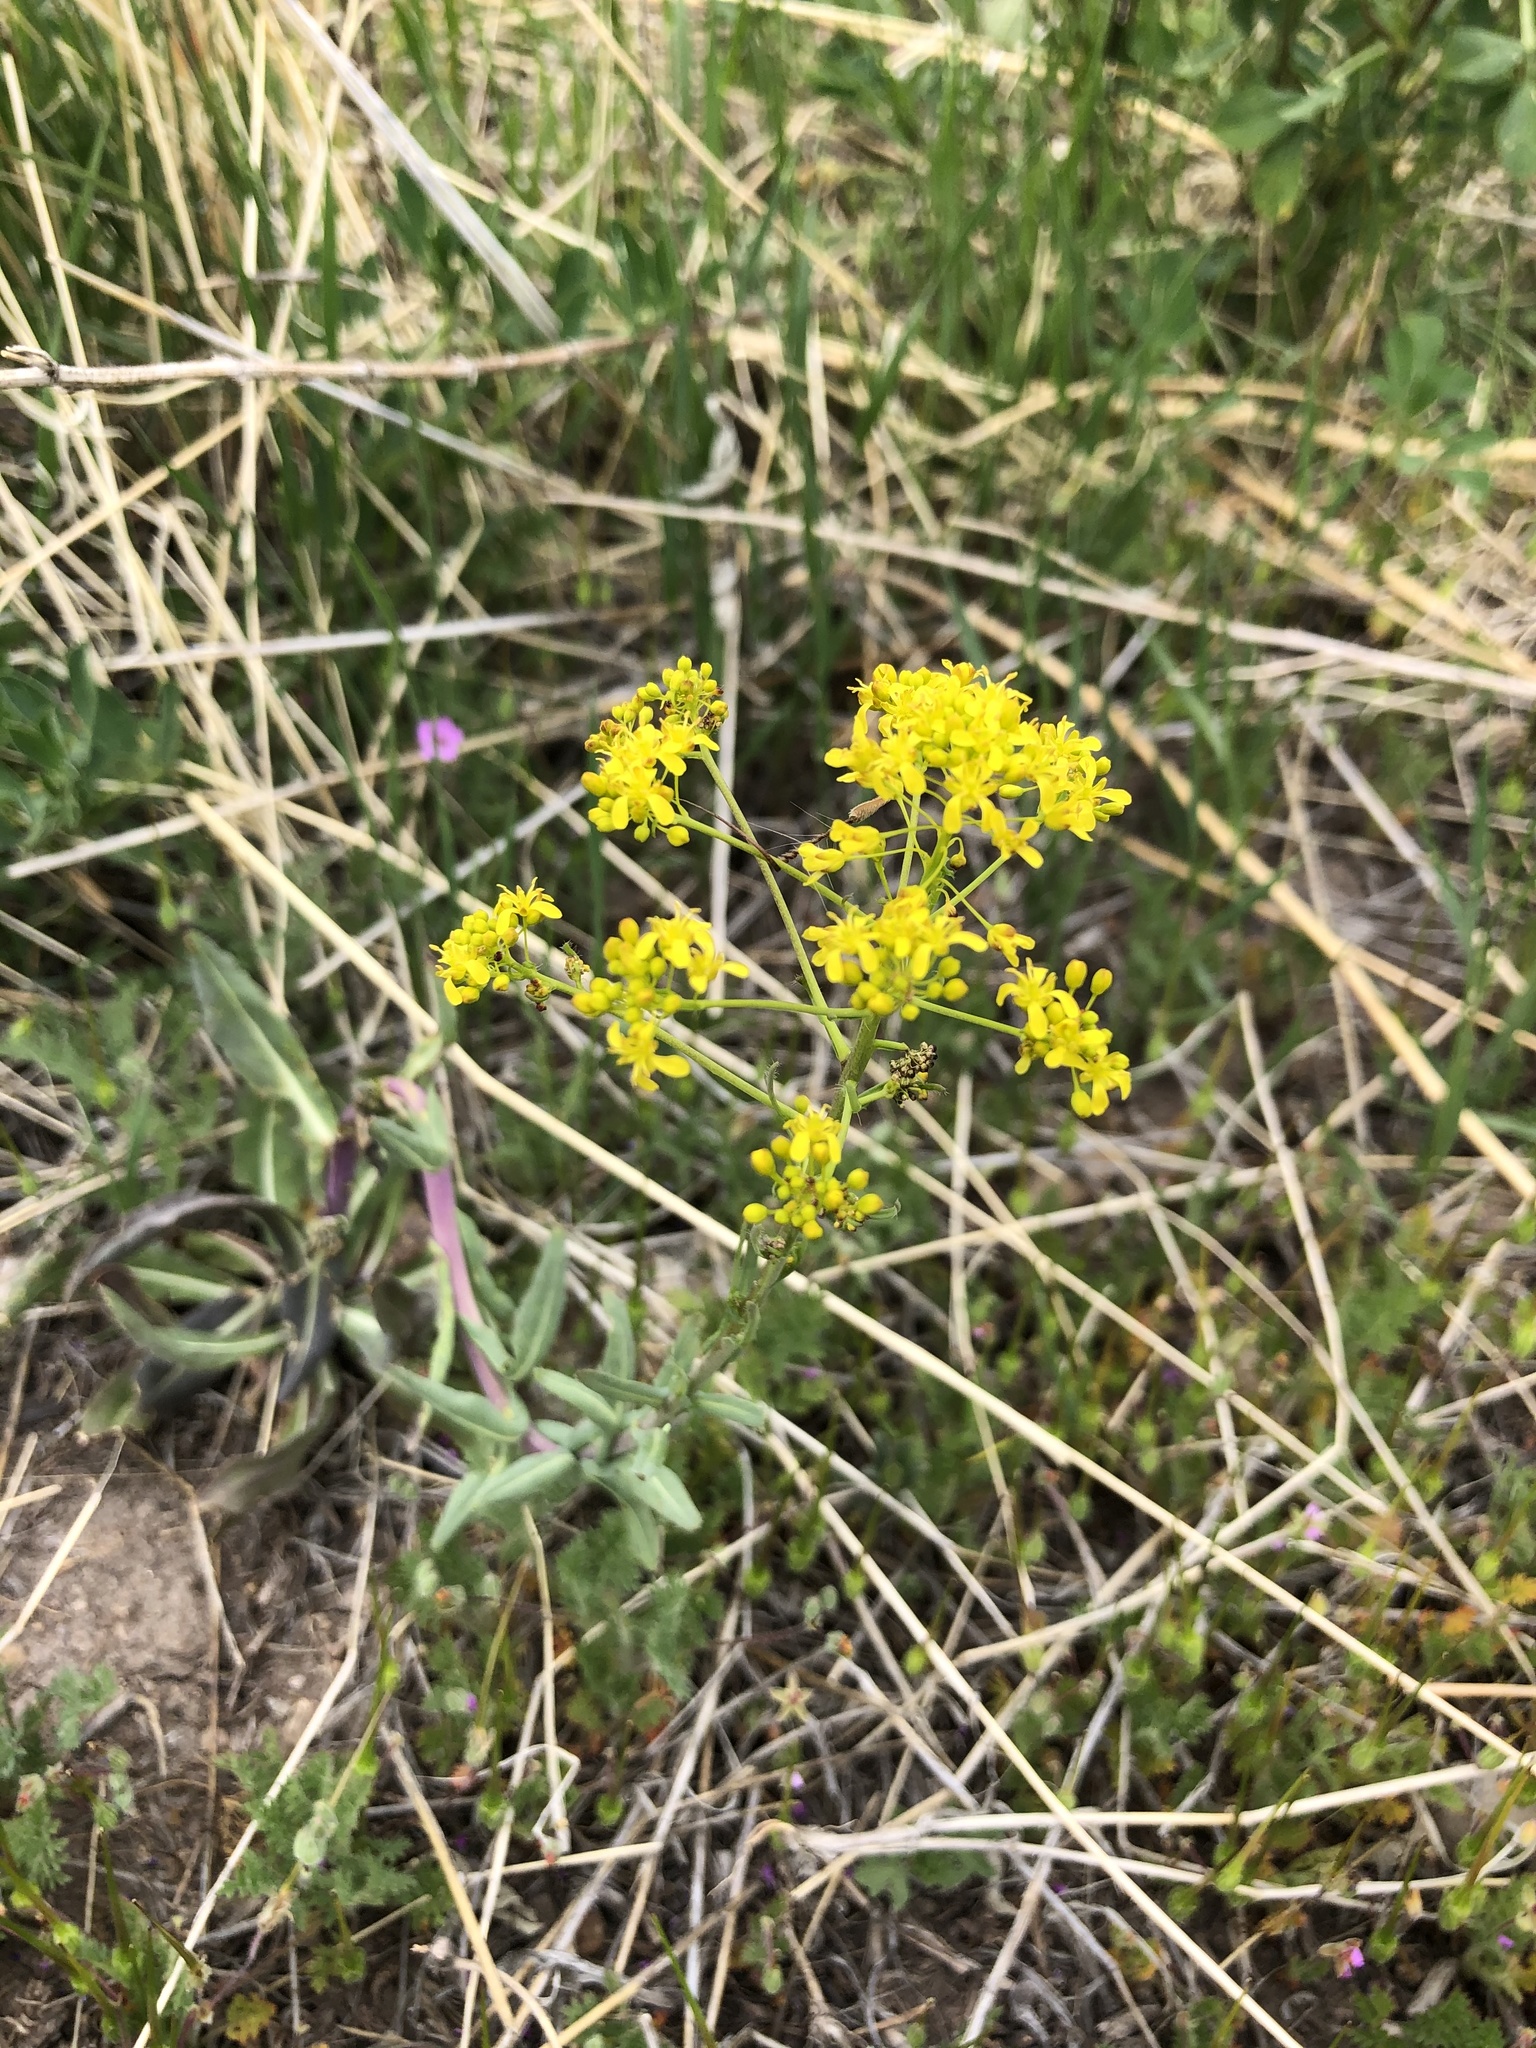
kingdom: Plantae
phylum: Tracheophyta
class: Magnoliopsida
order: Brassicales
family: Brassicaceae
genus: Isatis
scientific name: Isatis tinctoria
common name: Woad
